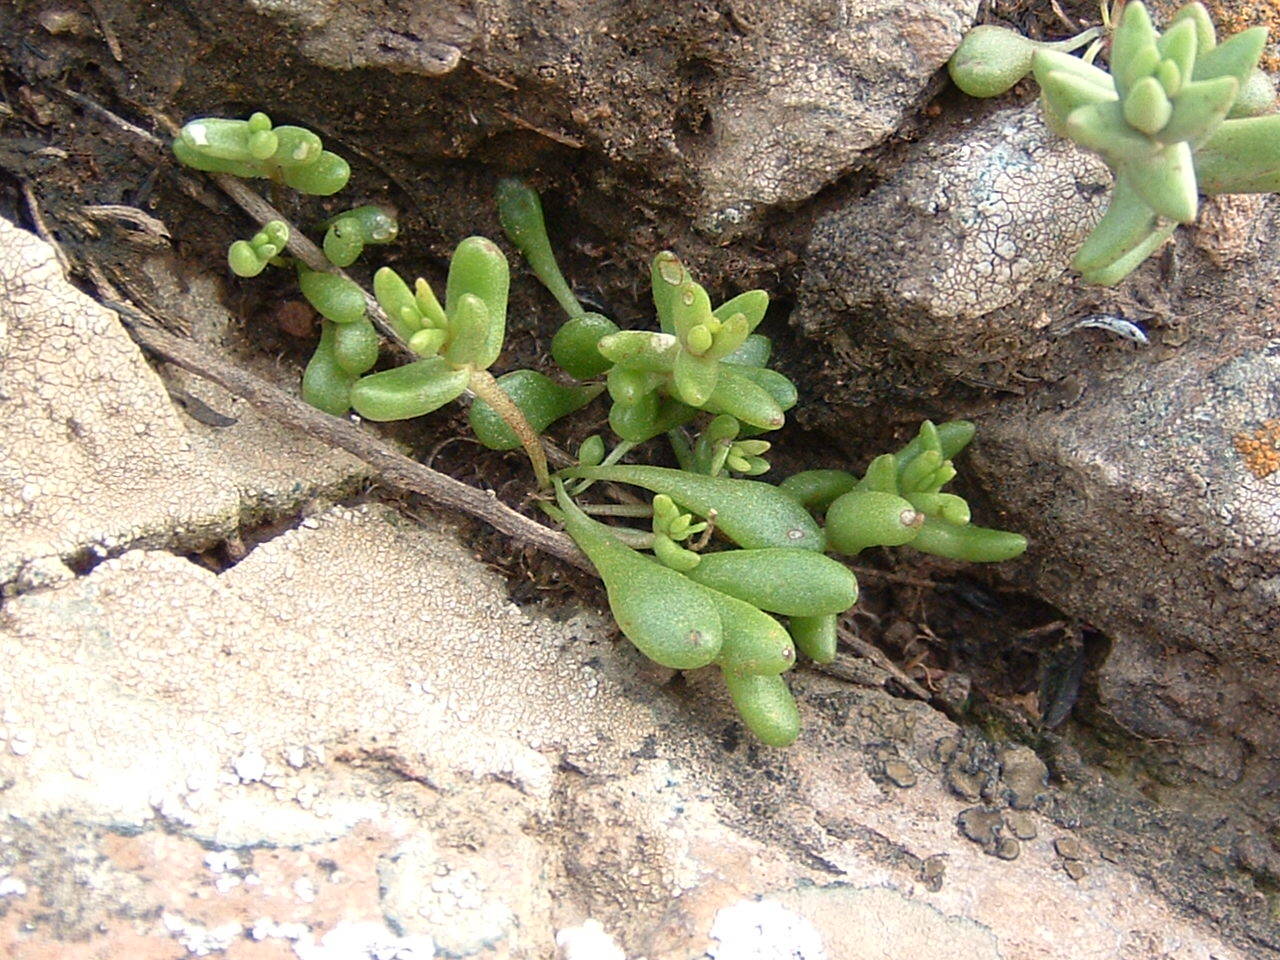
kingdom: Plantae
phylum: Tracheophyta
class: Magnoliopsida
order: Saxifragales
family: Crassulaceae
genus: Dudleya
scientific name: Dudleya blochmaniae
